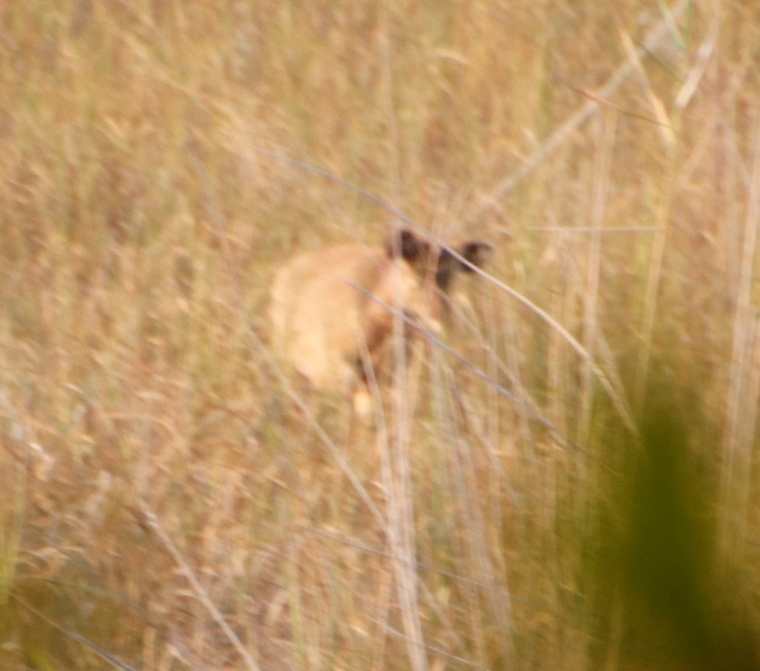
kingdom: Animalia
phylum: Chordata
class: Mammalia
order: Artiodactyla
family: Bovidae
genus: Tragelaphus
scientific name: Tragelaphus spekii
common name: Sitatunga
